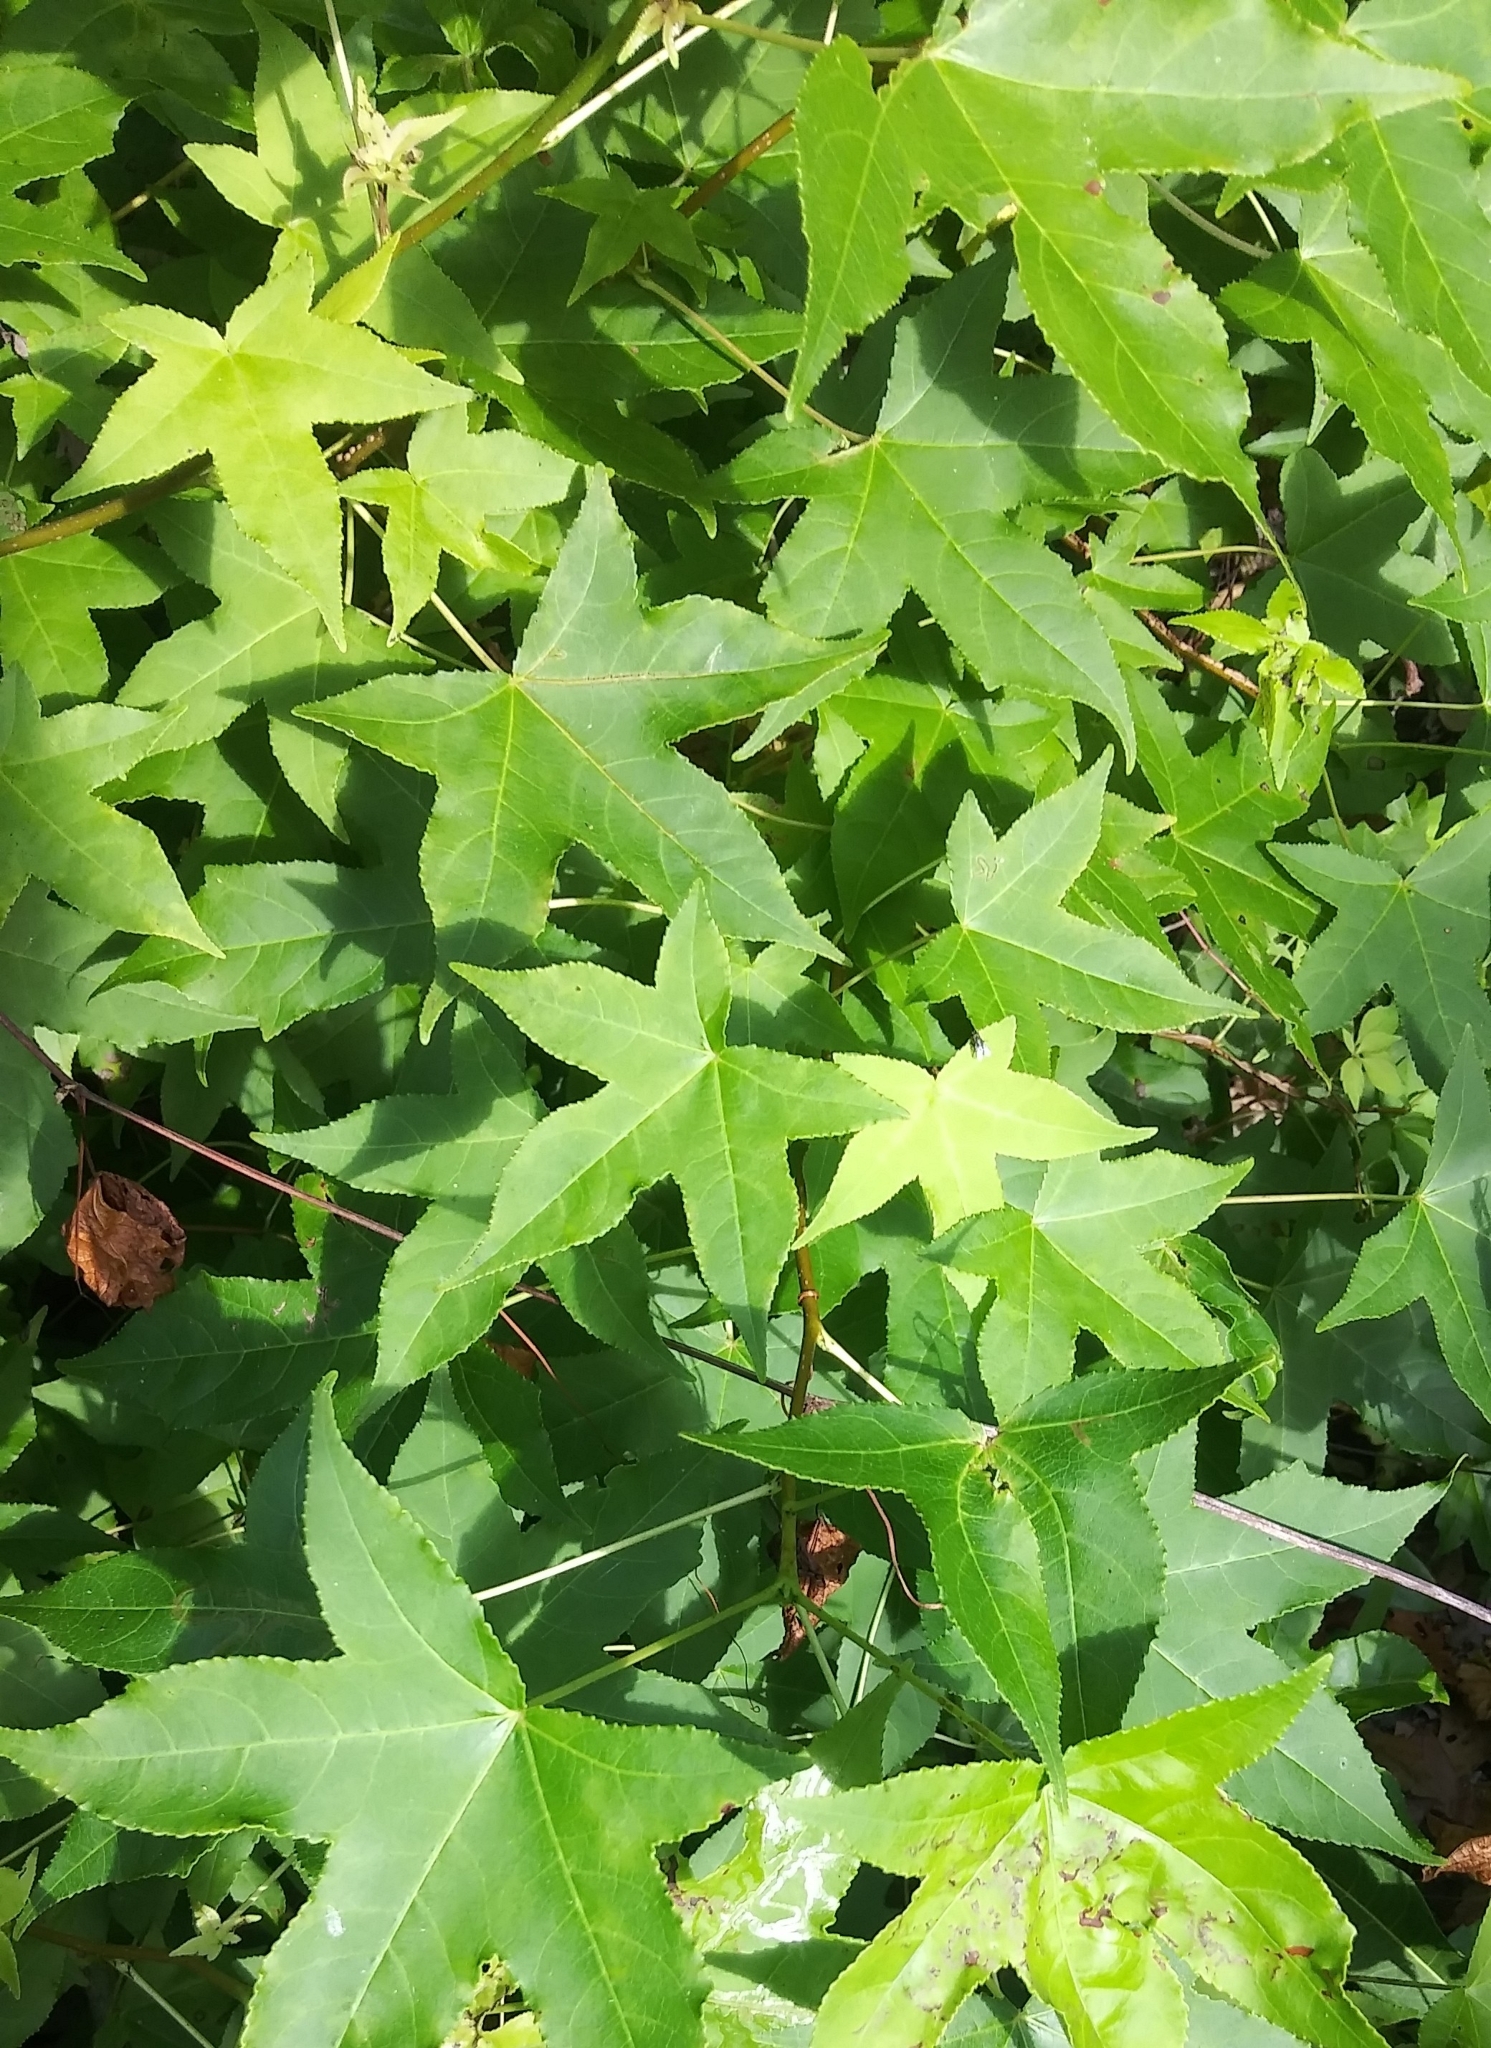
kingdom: Plantae
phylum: Tracheophyta
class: Magnoliopsida
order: Saxifragales
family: Altingiaceae
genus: Liquidambar
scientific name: Liquidambar styraciflua
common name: Sweet gum
